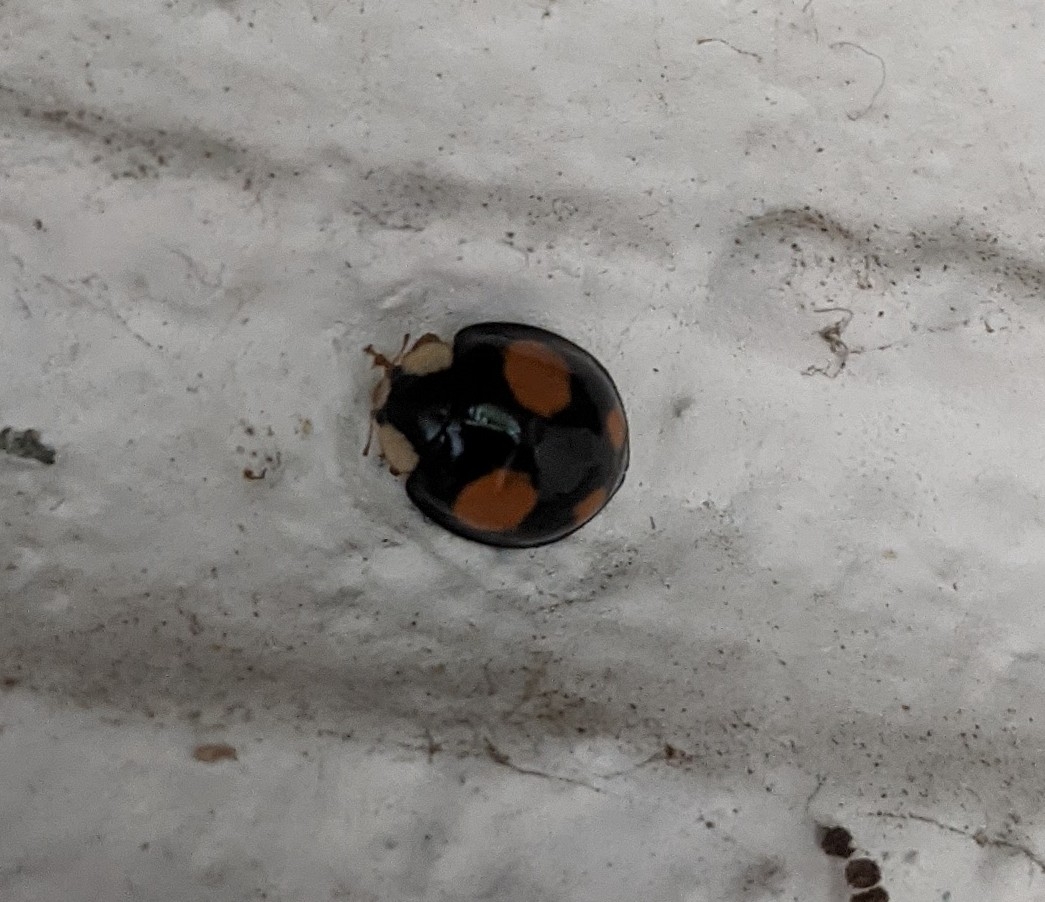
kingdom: Animalia
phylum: Arthropoda
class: Insecta
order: Coleoptera
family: Coccinellidae
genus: Harmonia
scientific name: Harmonia axyridis
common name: Harlequin ladybird
